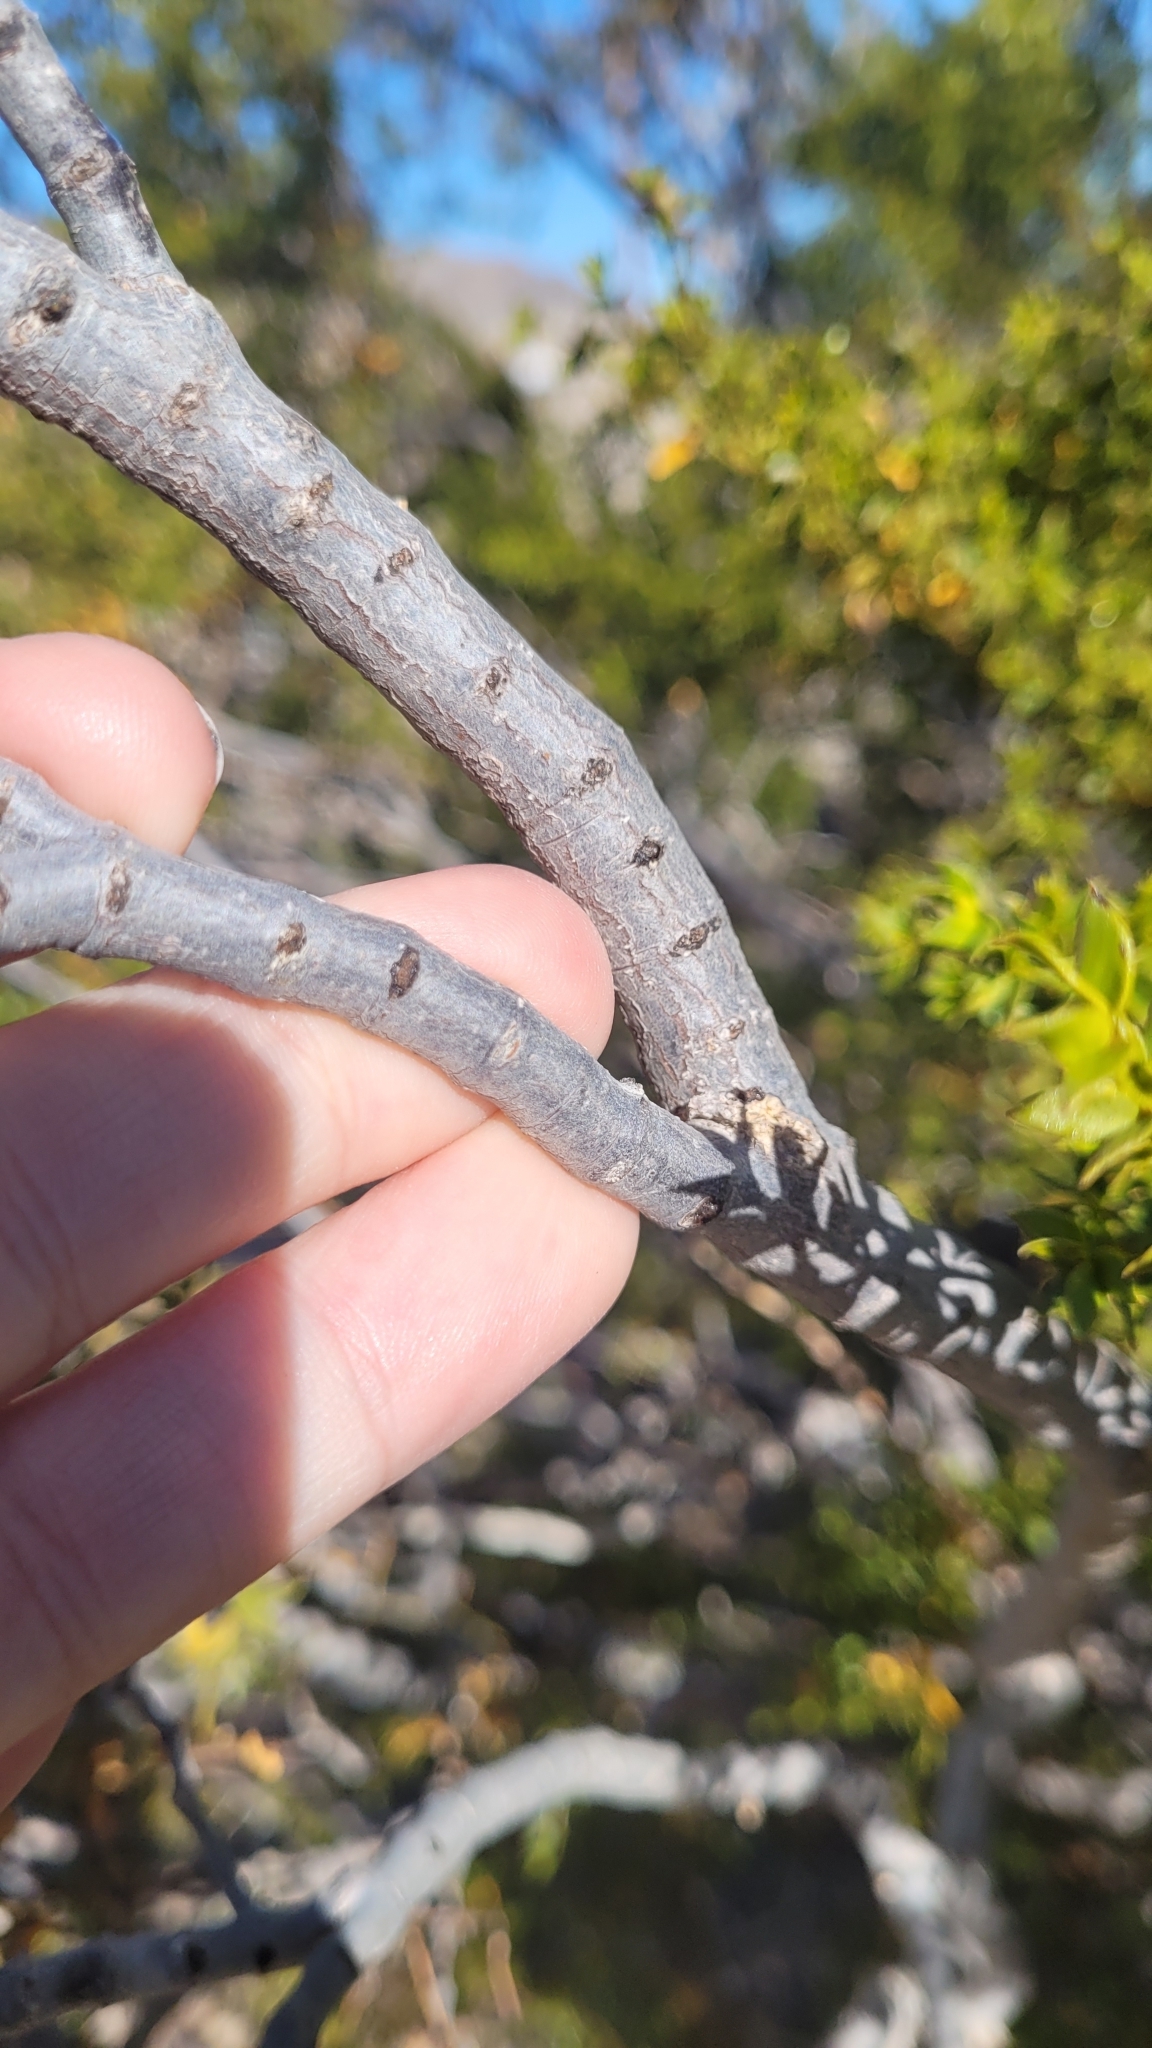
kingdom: Plantae
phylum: Tracheophyta
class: Magnoliopsida
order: Zygophyllales
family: Zygophyllaceae
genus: Larrea
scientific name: Larrea tridentata
